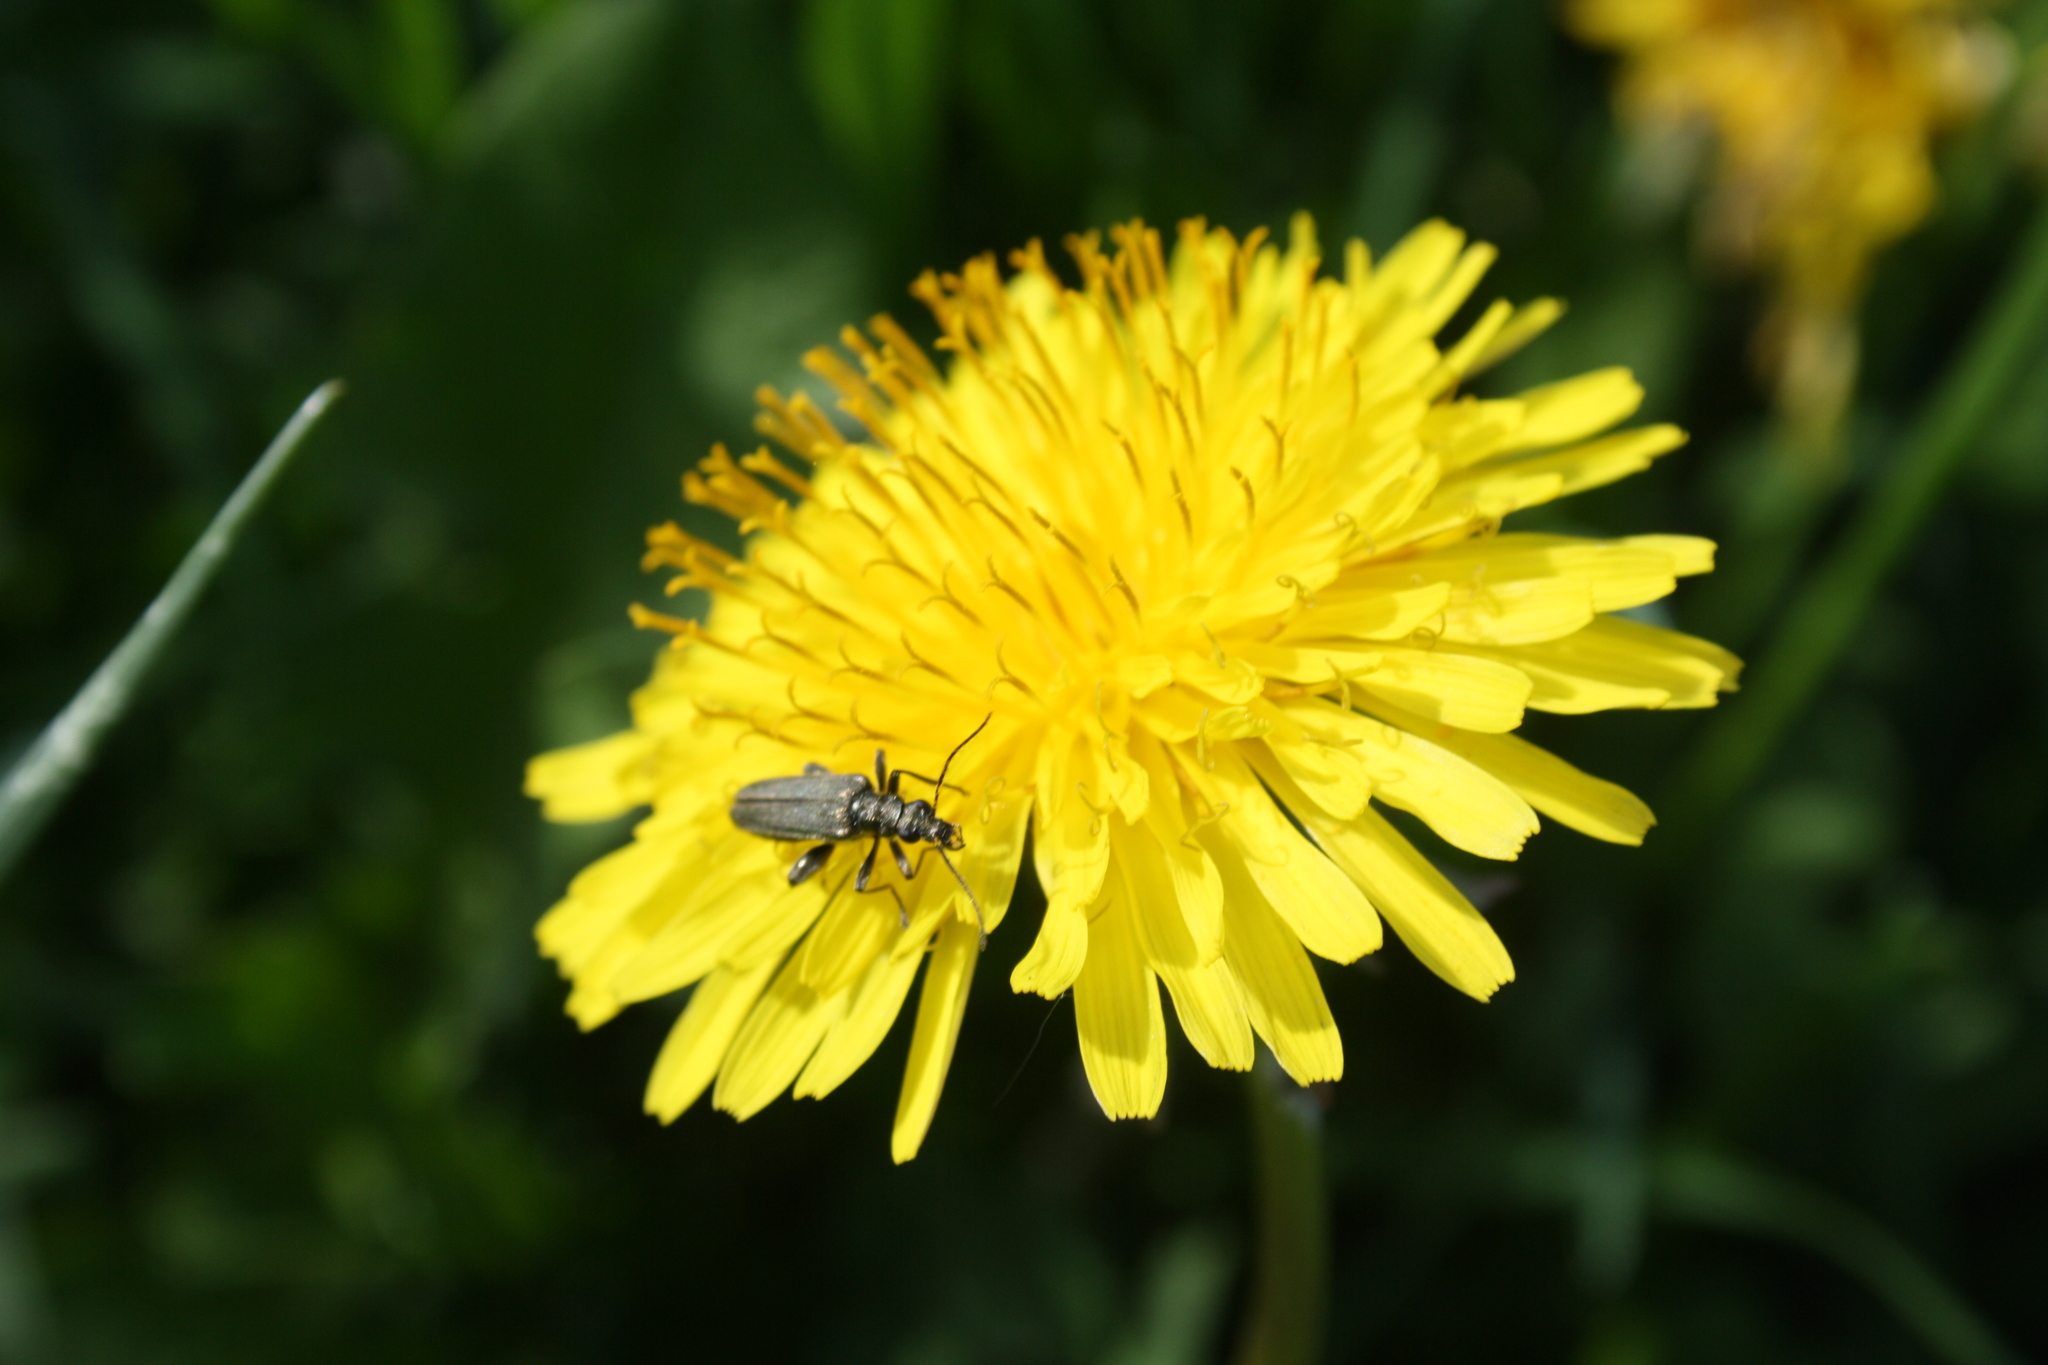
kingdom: Animalia
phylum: Arthropoda
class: Insecta
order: Coleoptera
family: Oedemeridae
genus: Oedemera
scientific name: Oedemera virescens
